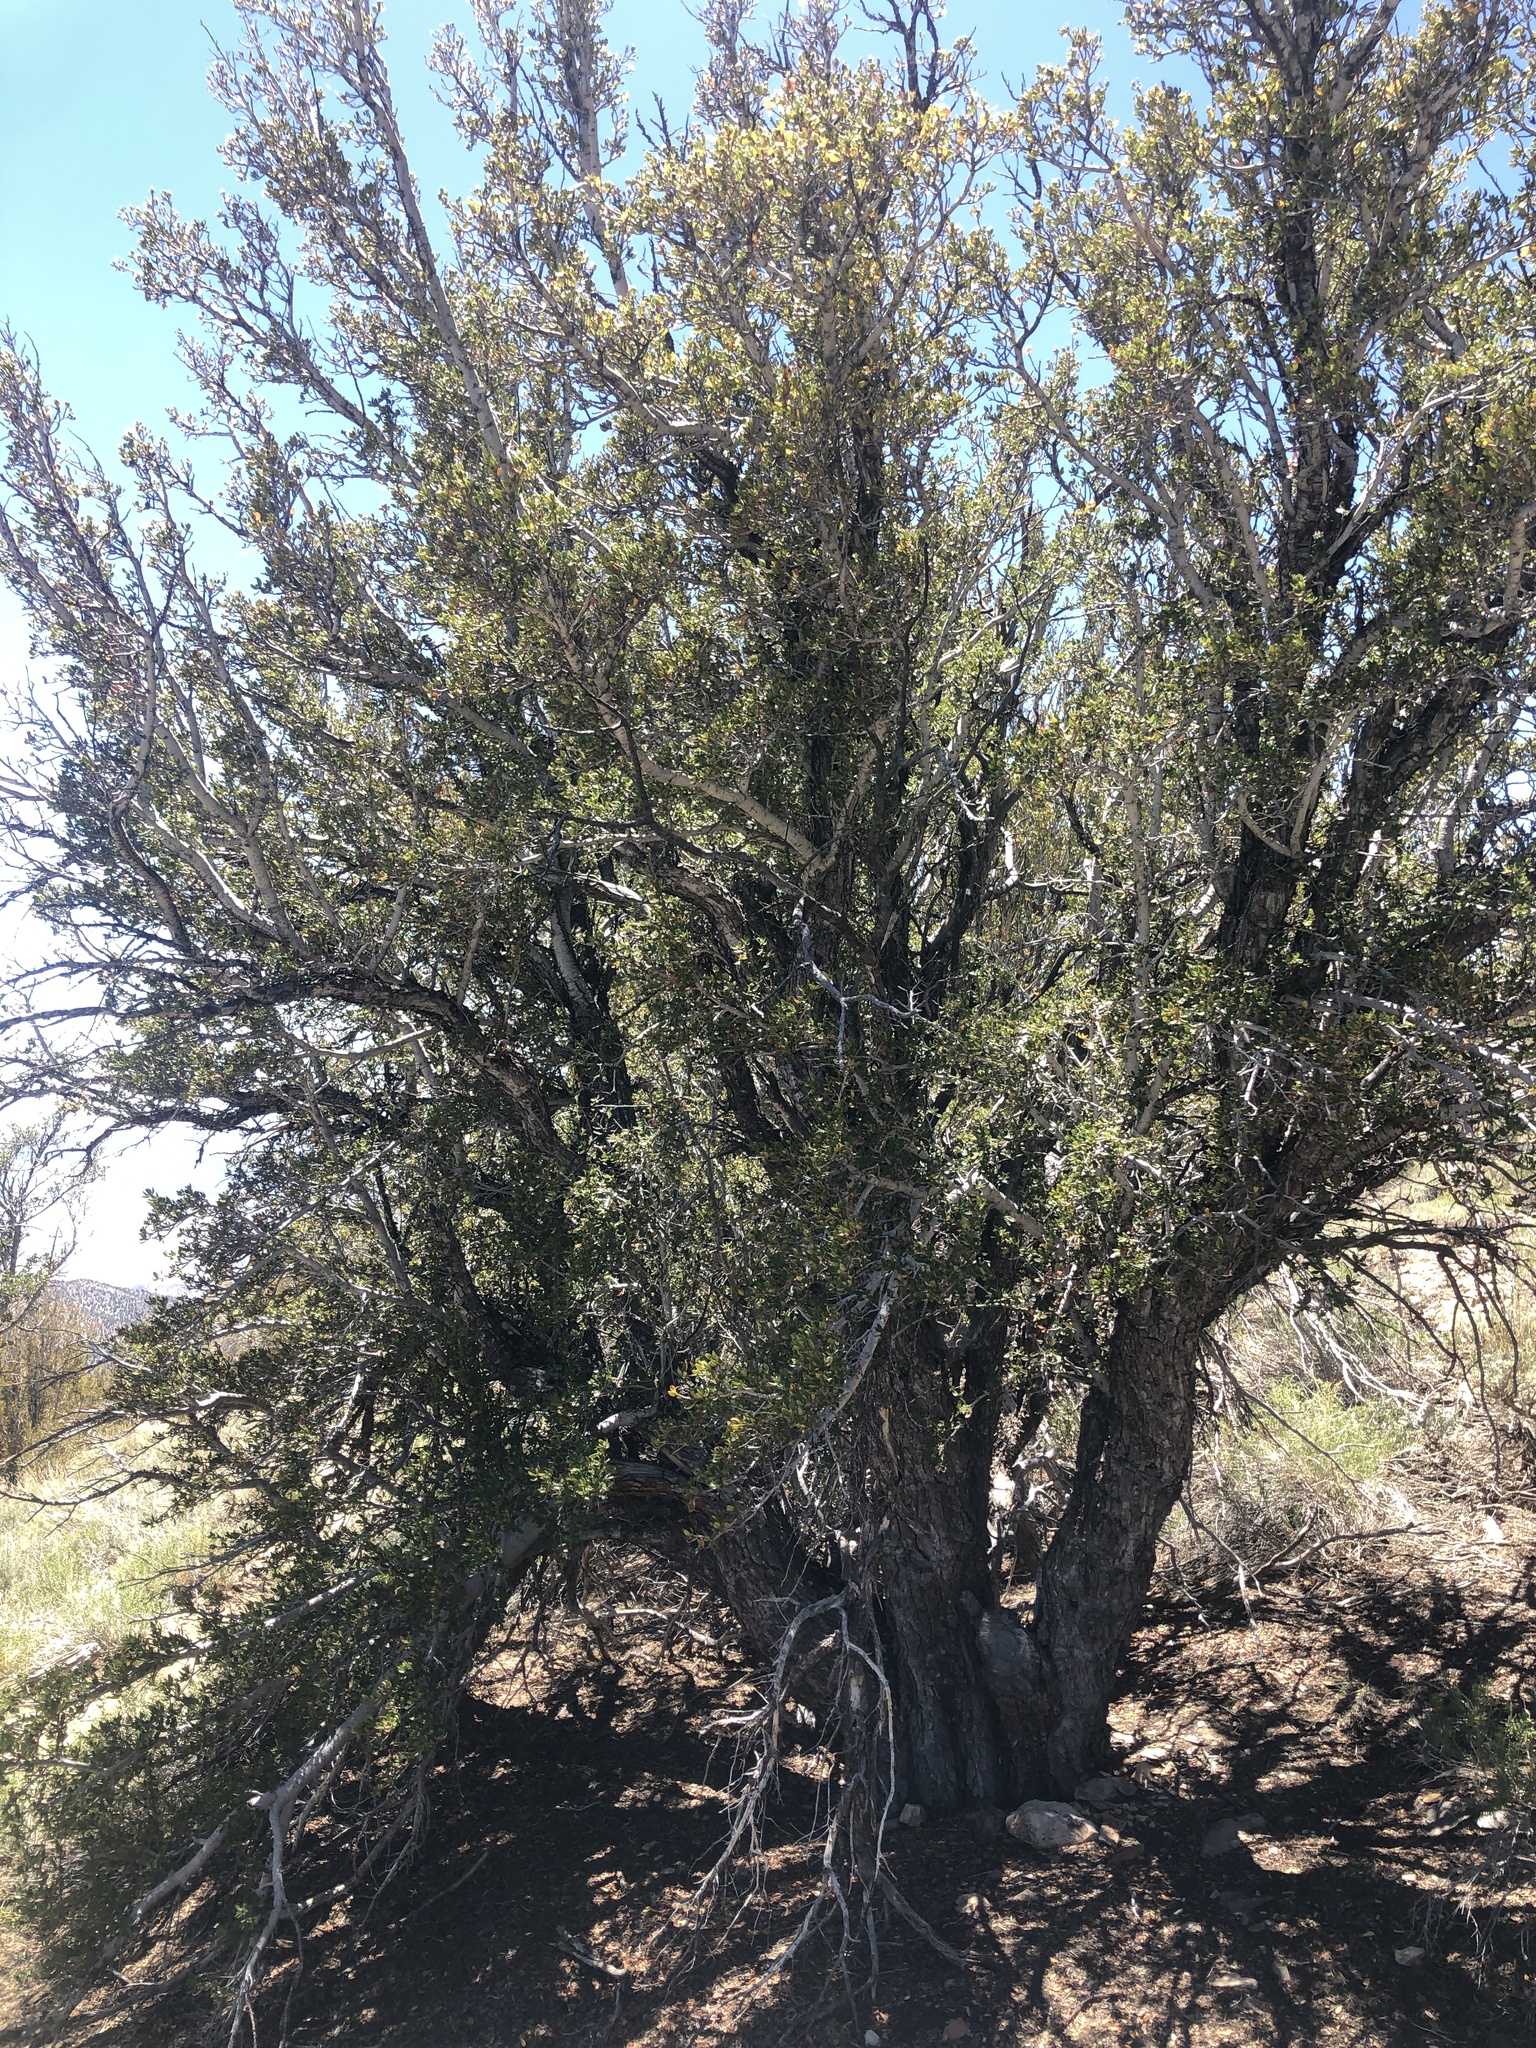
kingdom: Plantae
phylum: Tracheophyta
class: Magnoliopsida
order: Rosales
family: Rosaceae
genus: Cercocarpus
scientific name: Cercocarpus ledifolius
